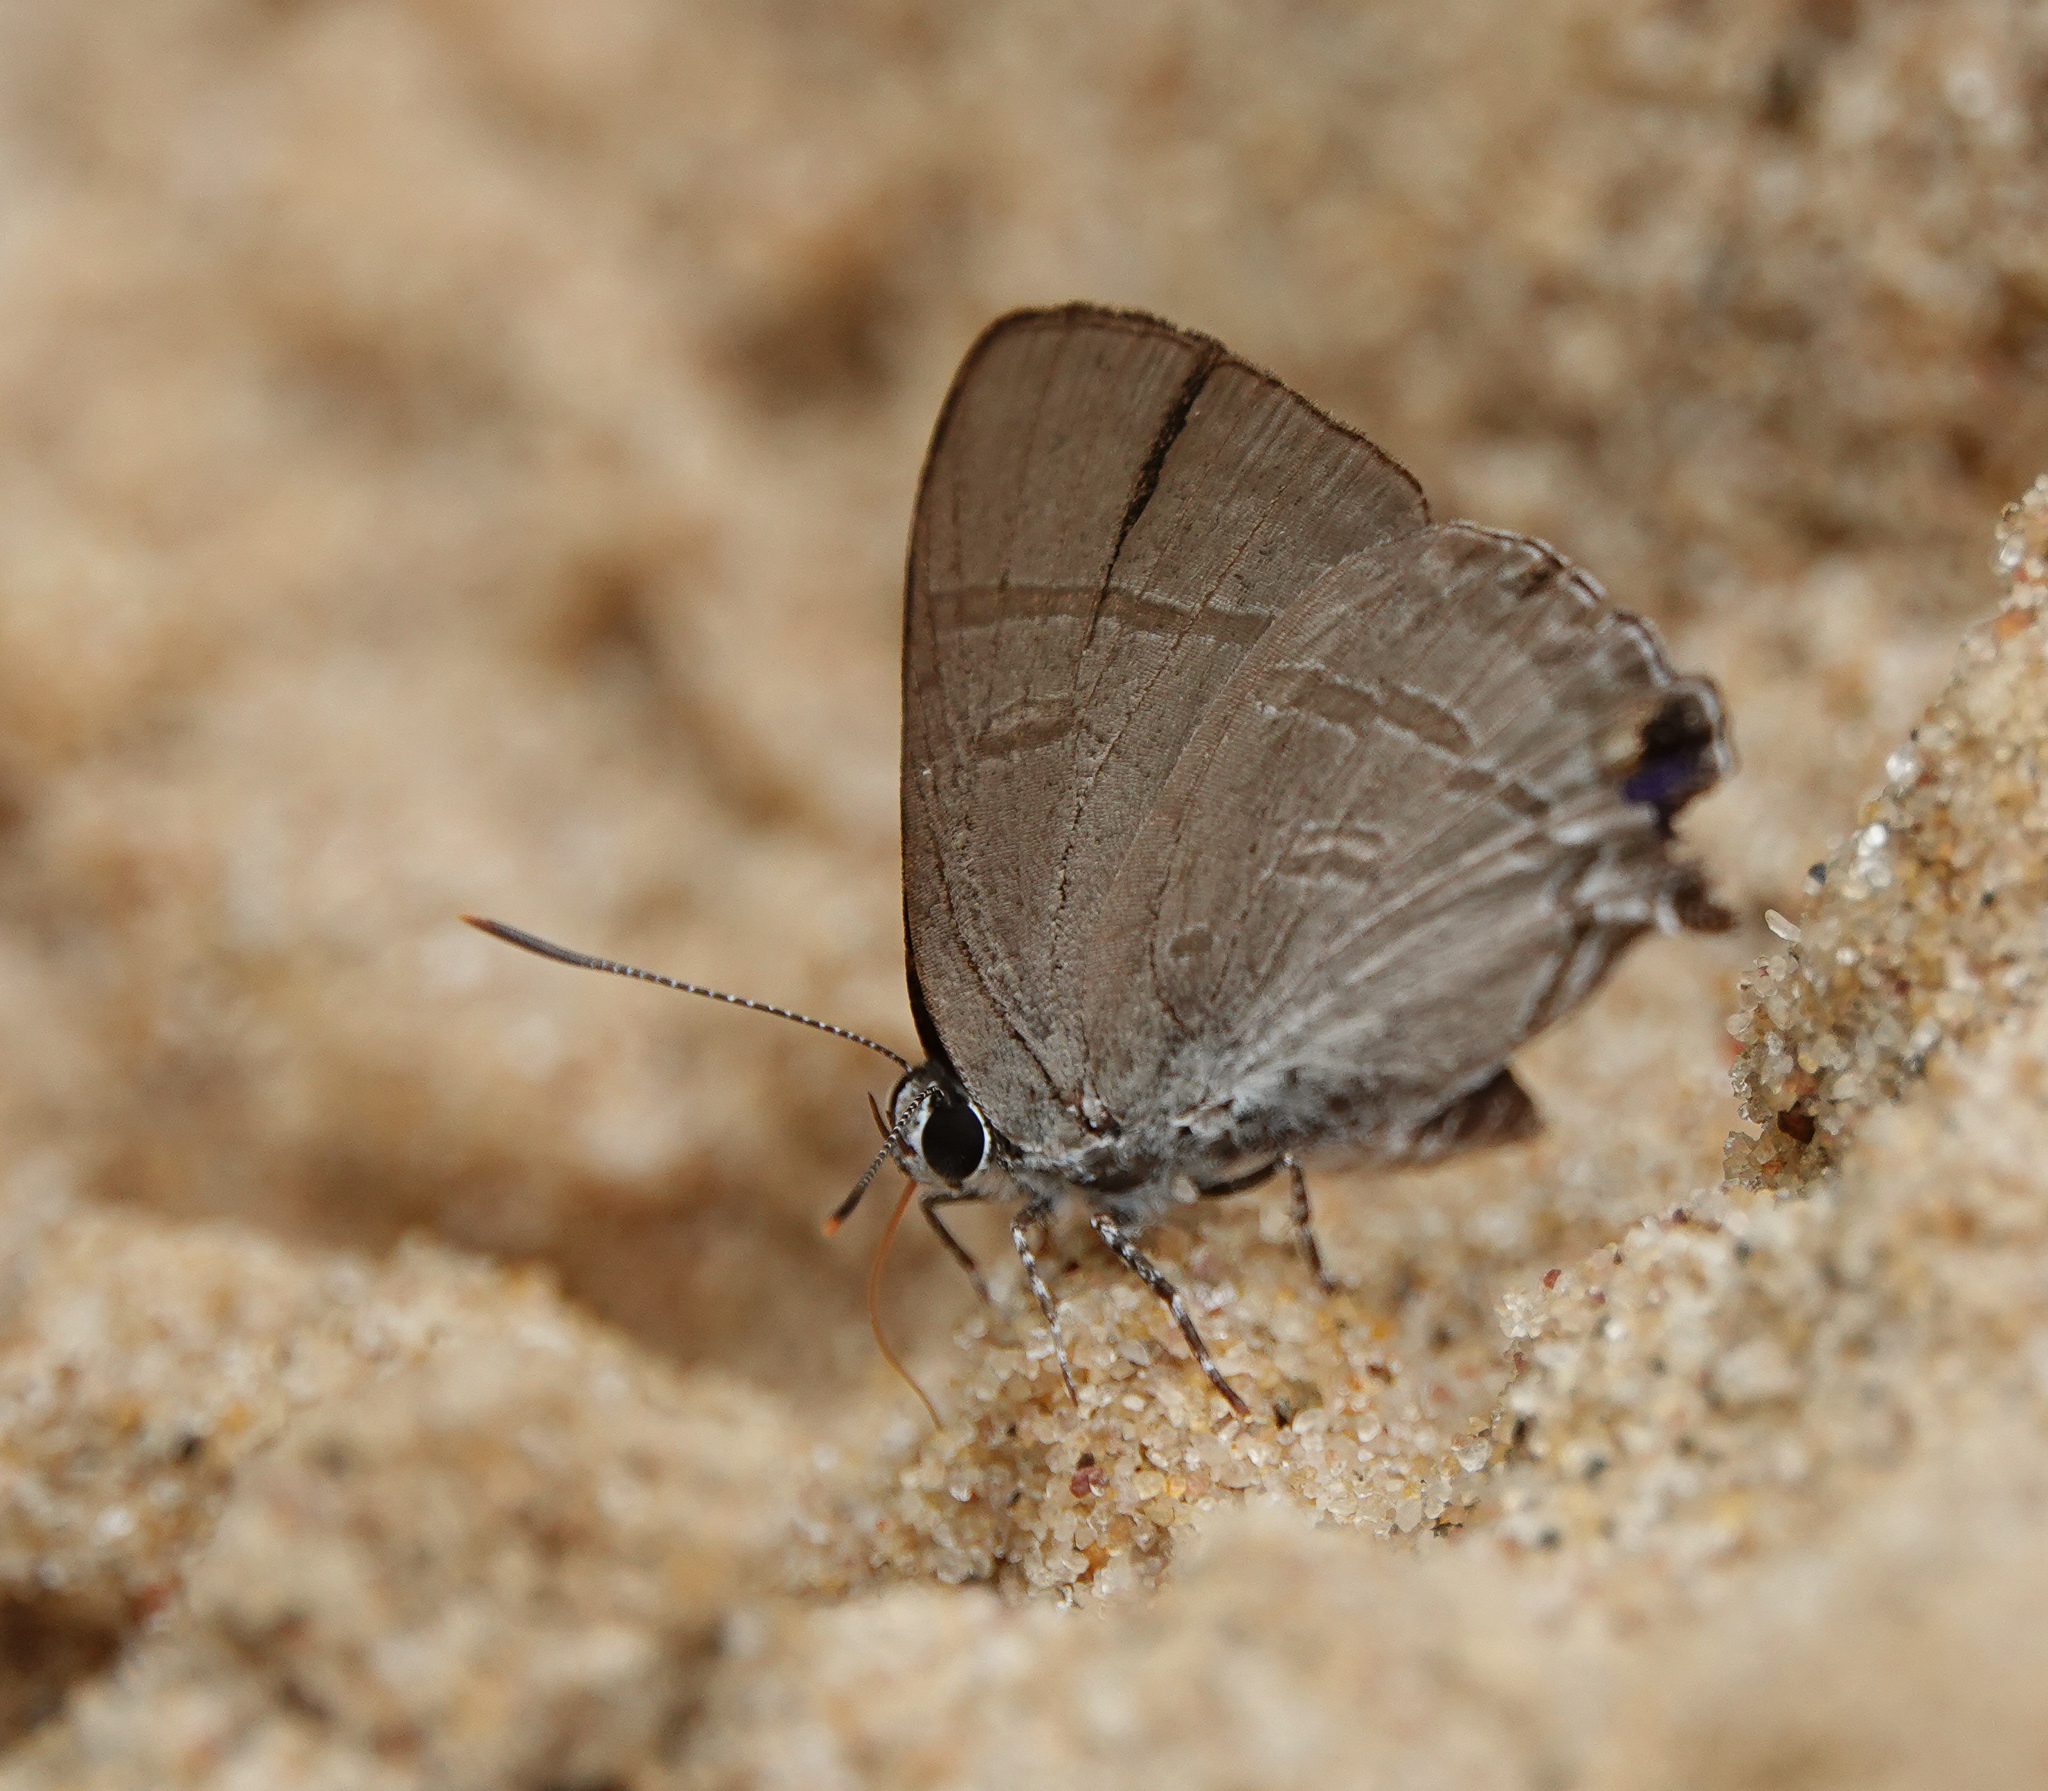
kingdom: Animalia
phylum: Arthropoda
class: Insecta
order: Lepidoptera
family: Lycaenidae
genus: Hypolycaena
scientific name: Hypolycaena erylus
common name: Common tit
